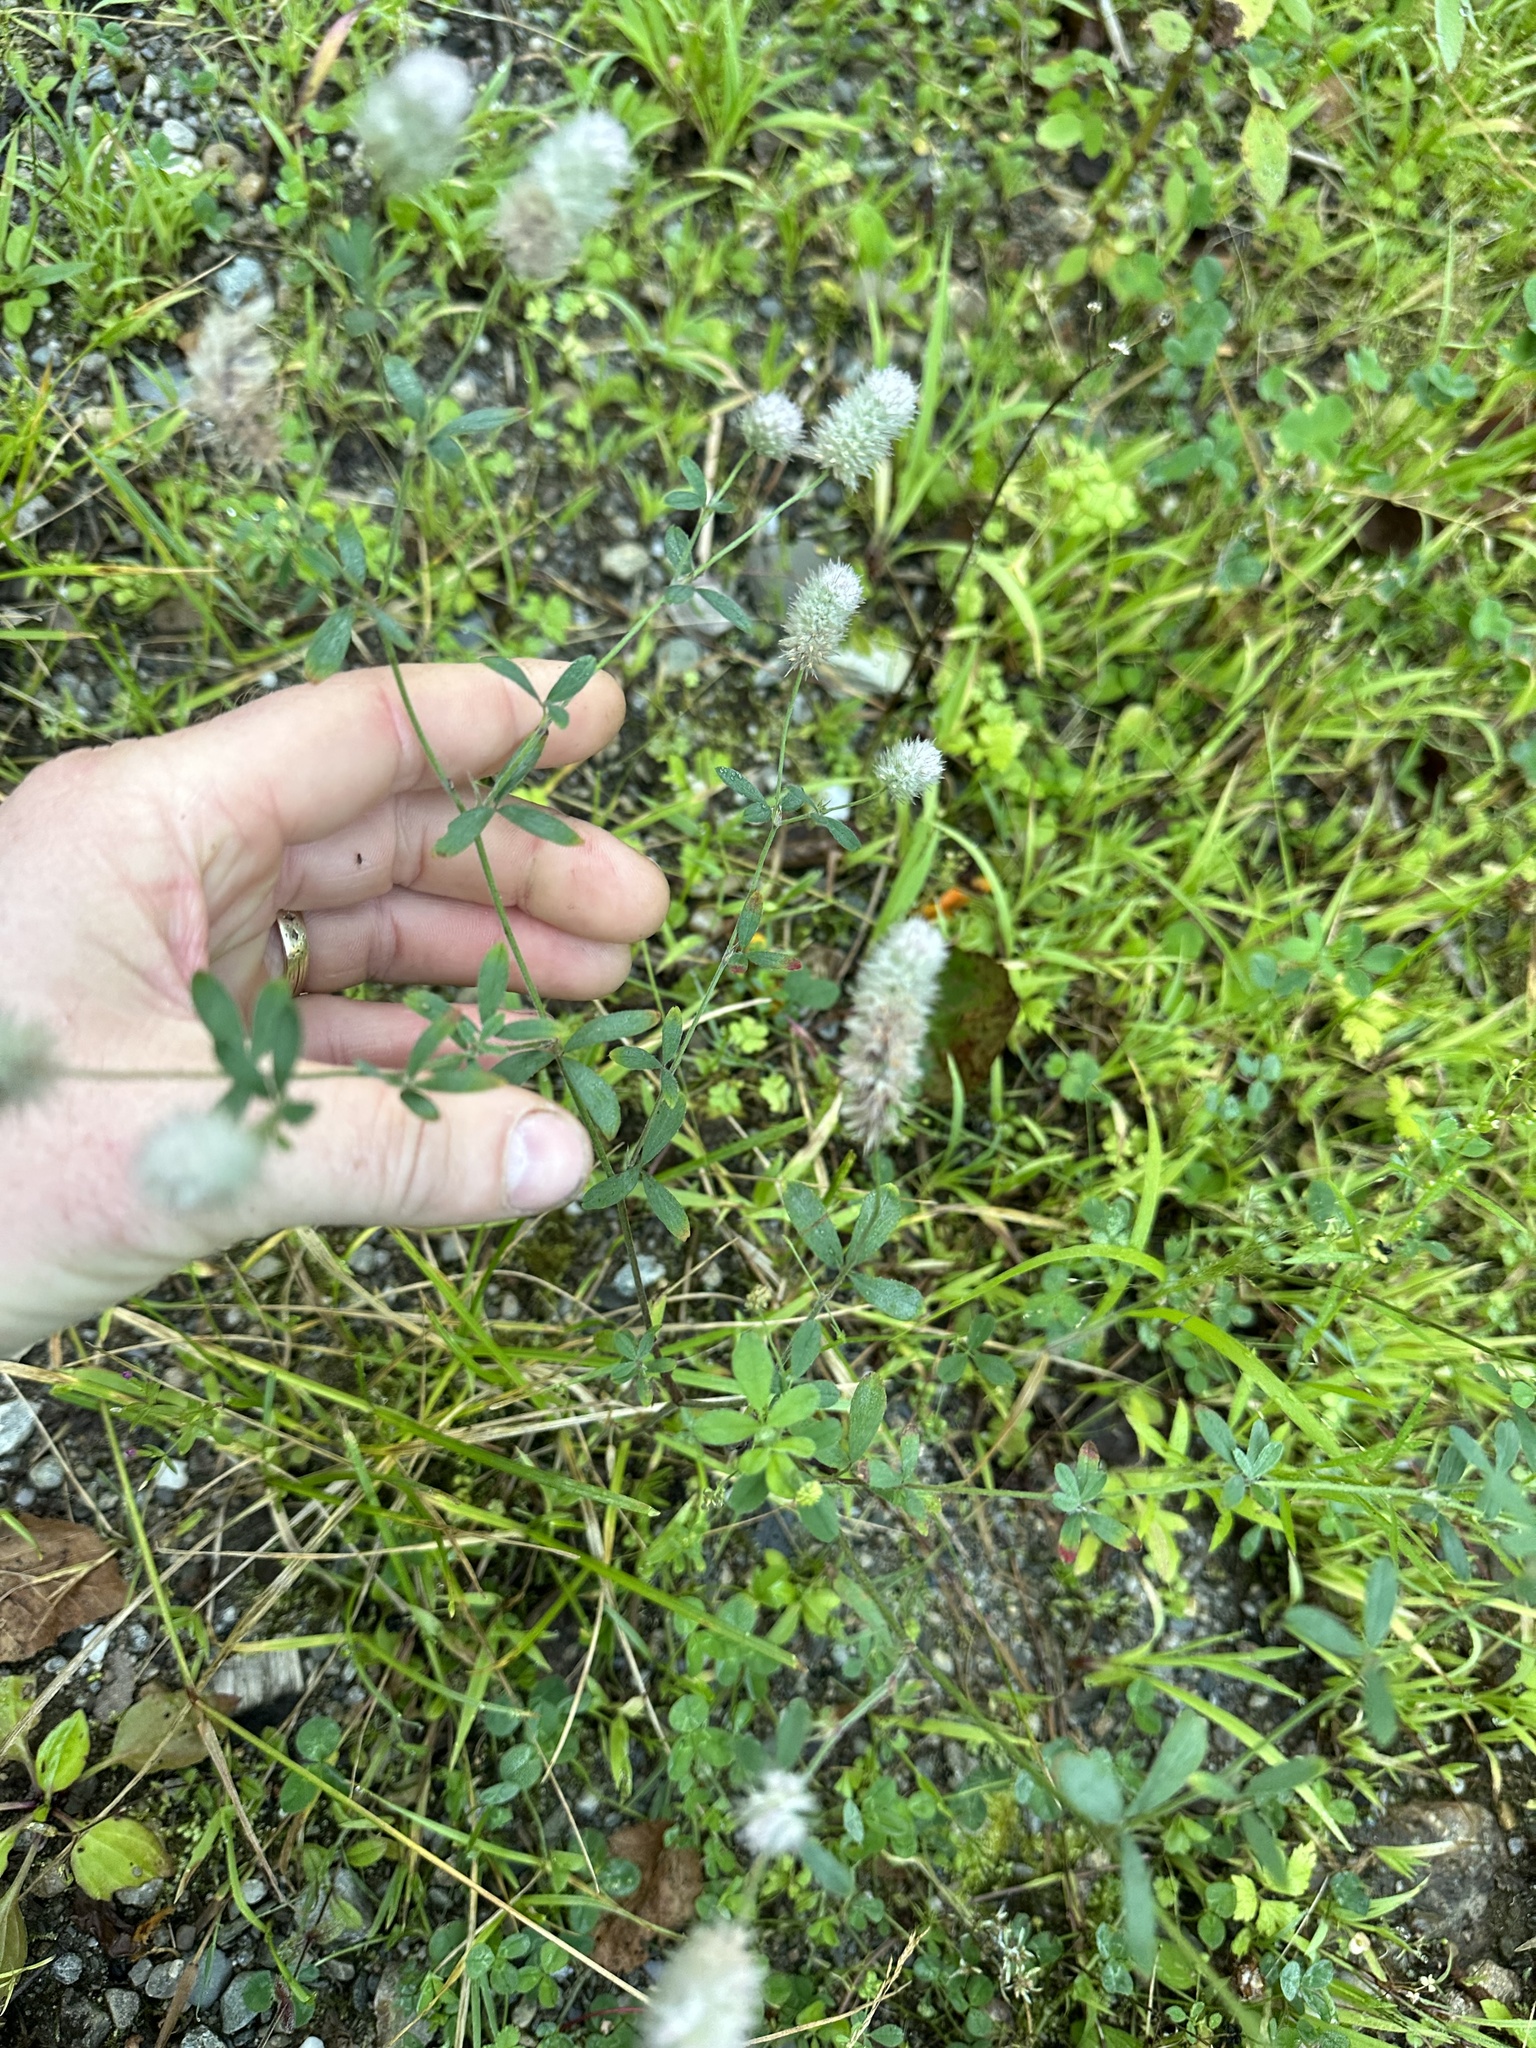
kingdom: Plantae
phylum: Tracheophyta
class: Magnoliopsida
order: Fabales
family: Fabaceae
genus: Trifolium
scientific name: Trifolium arvense
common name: Hare's-foot clover
